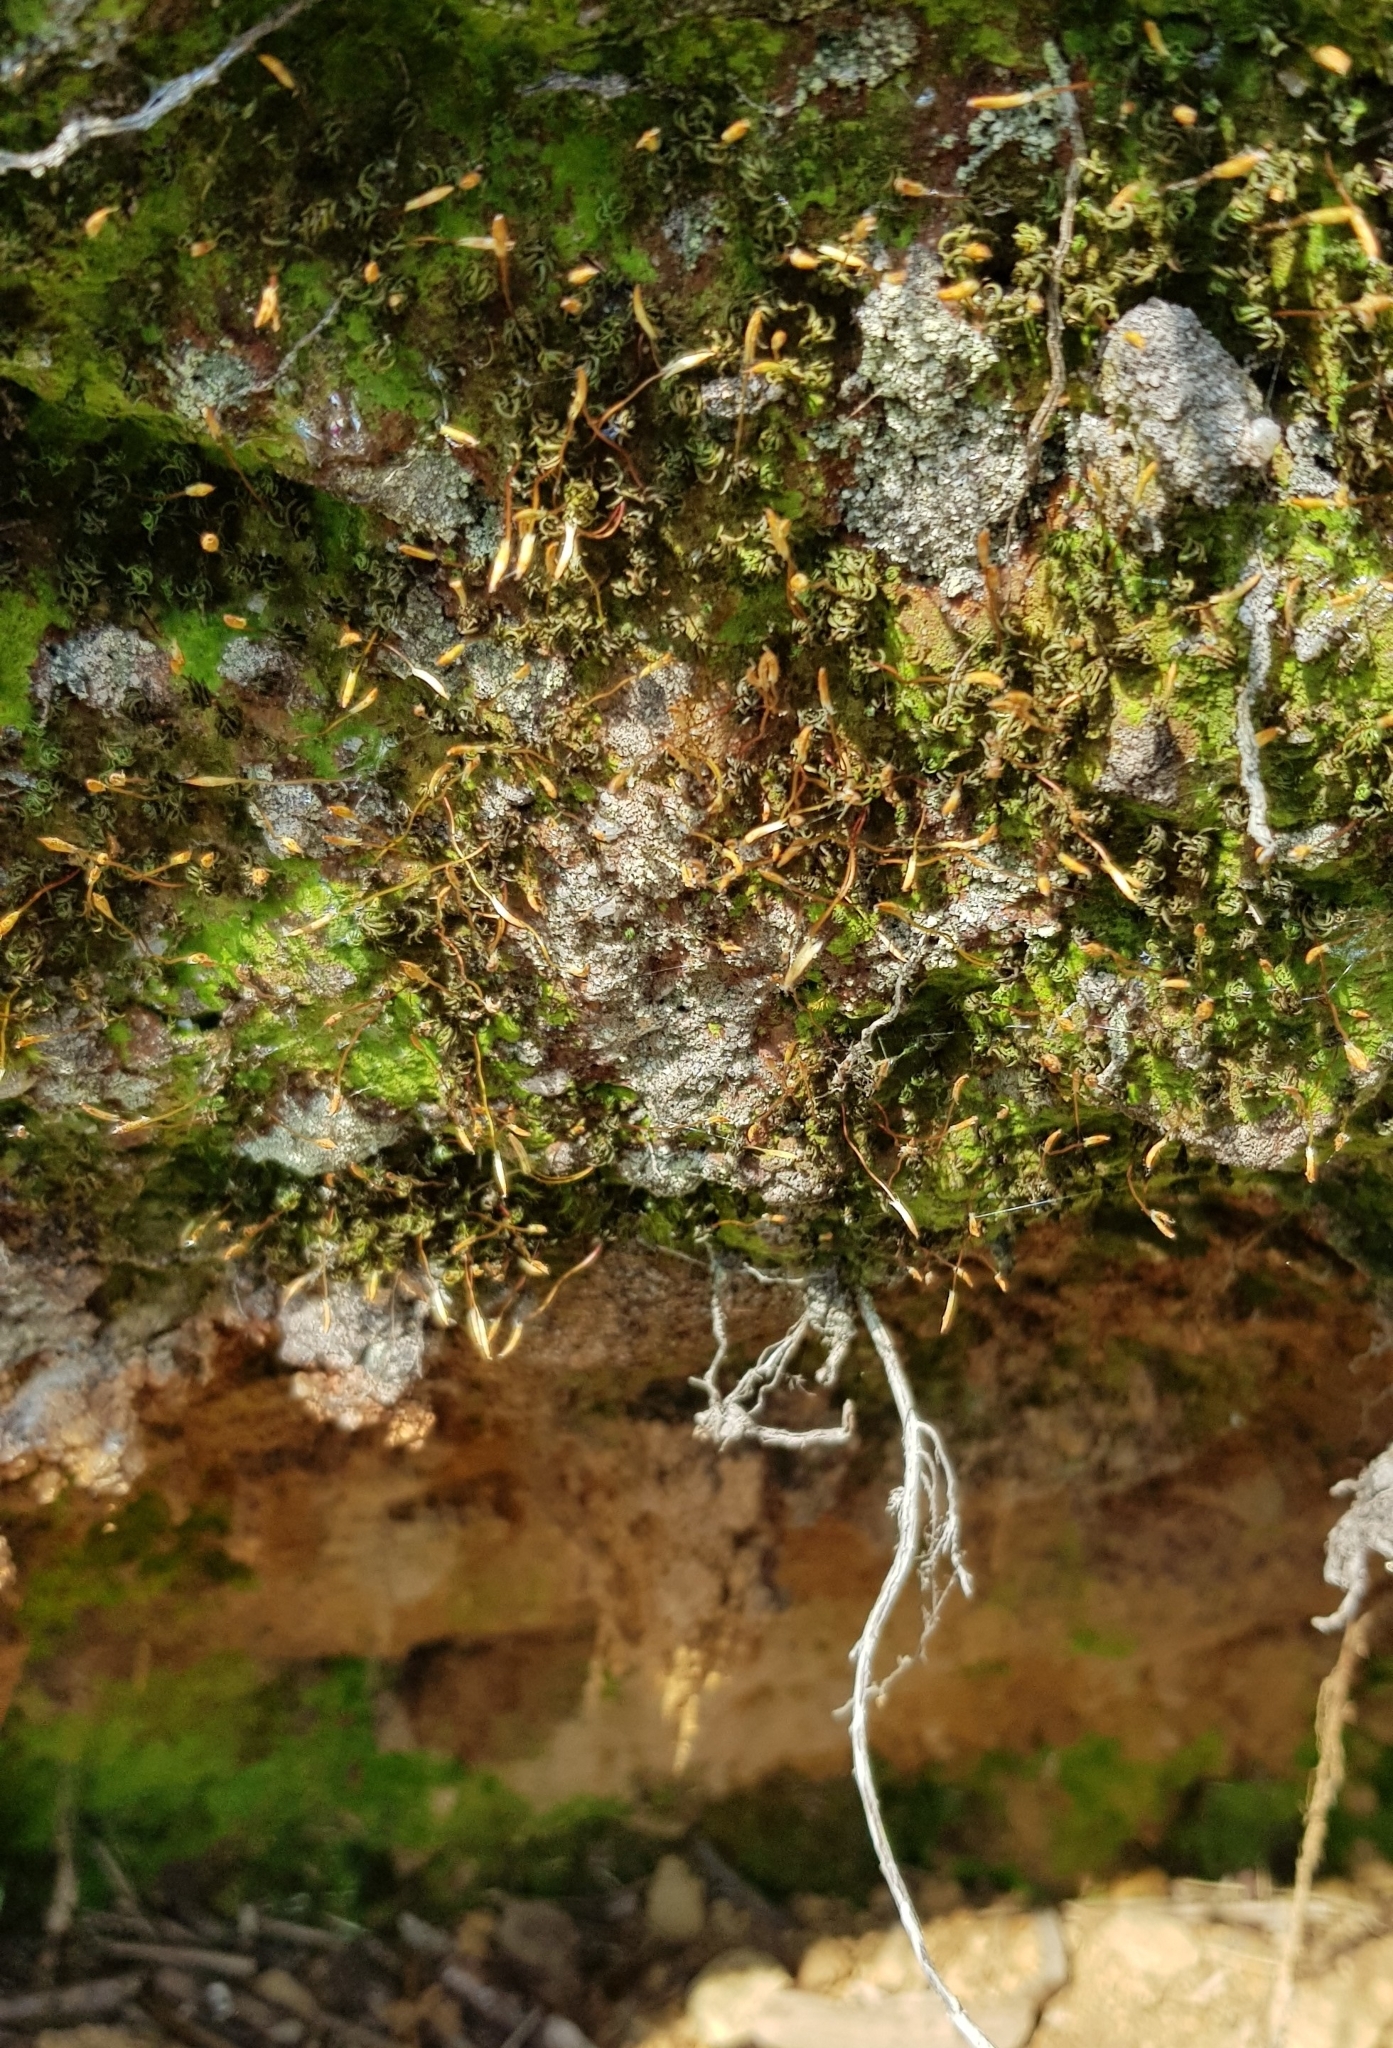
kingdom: Plantae
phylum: Bryophyta
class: Polytrichopsida
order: Polytrichales
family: Polytrichaceae
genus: Pogonatum
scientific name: Pogonatum aloides
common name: Aloe haircap
